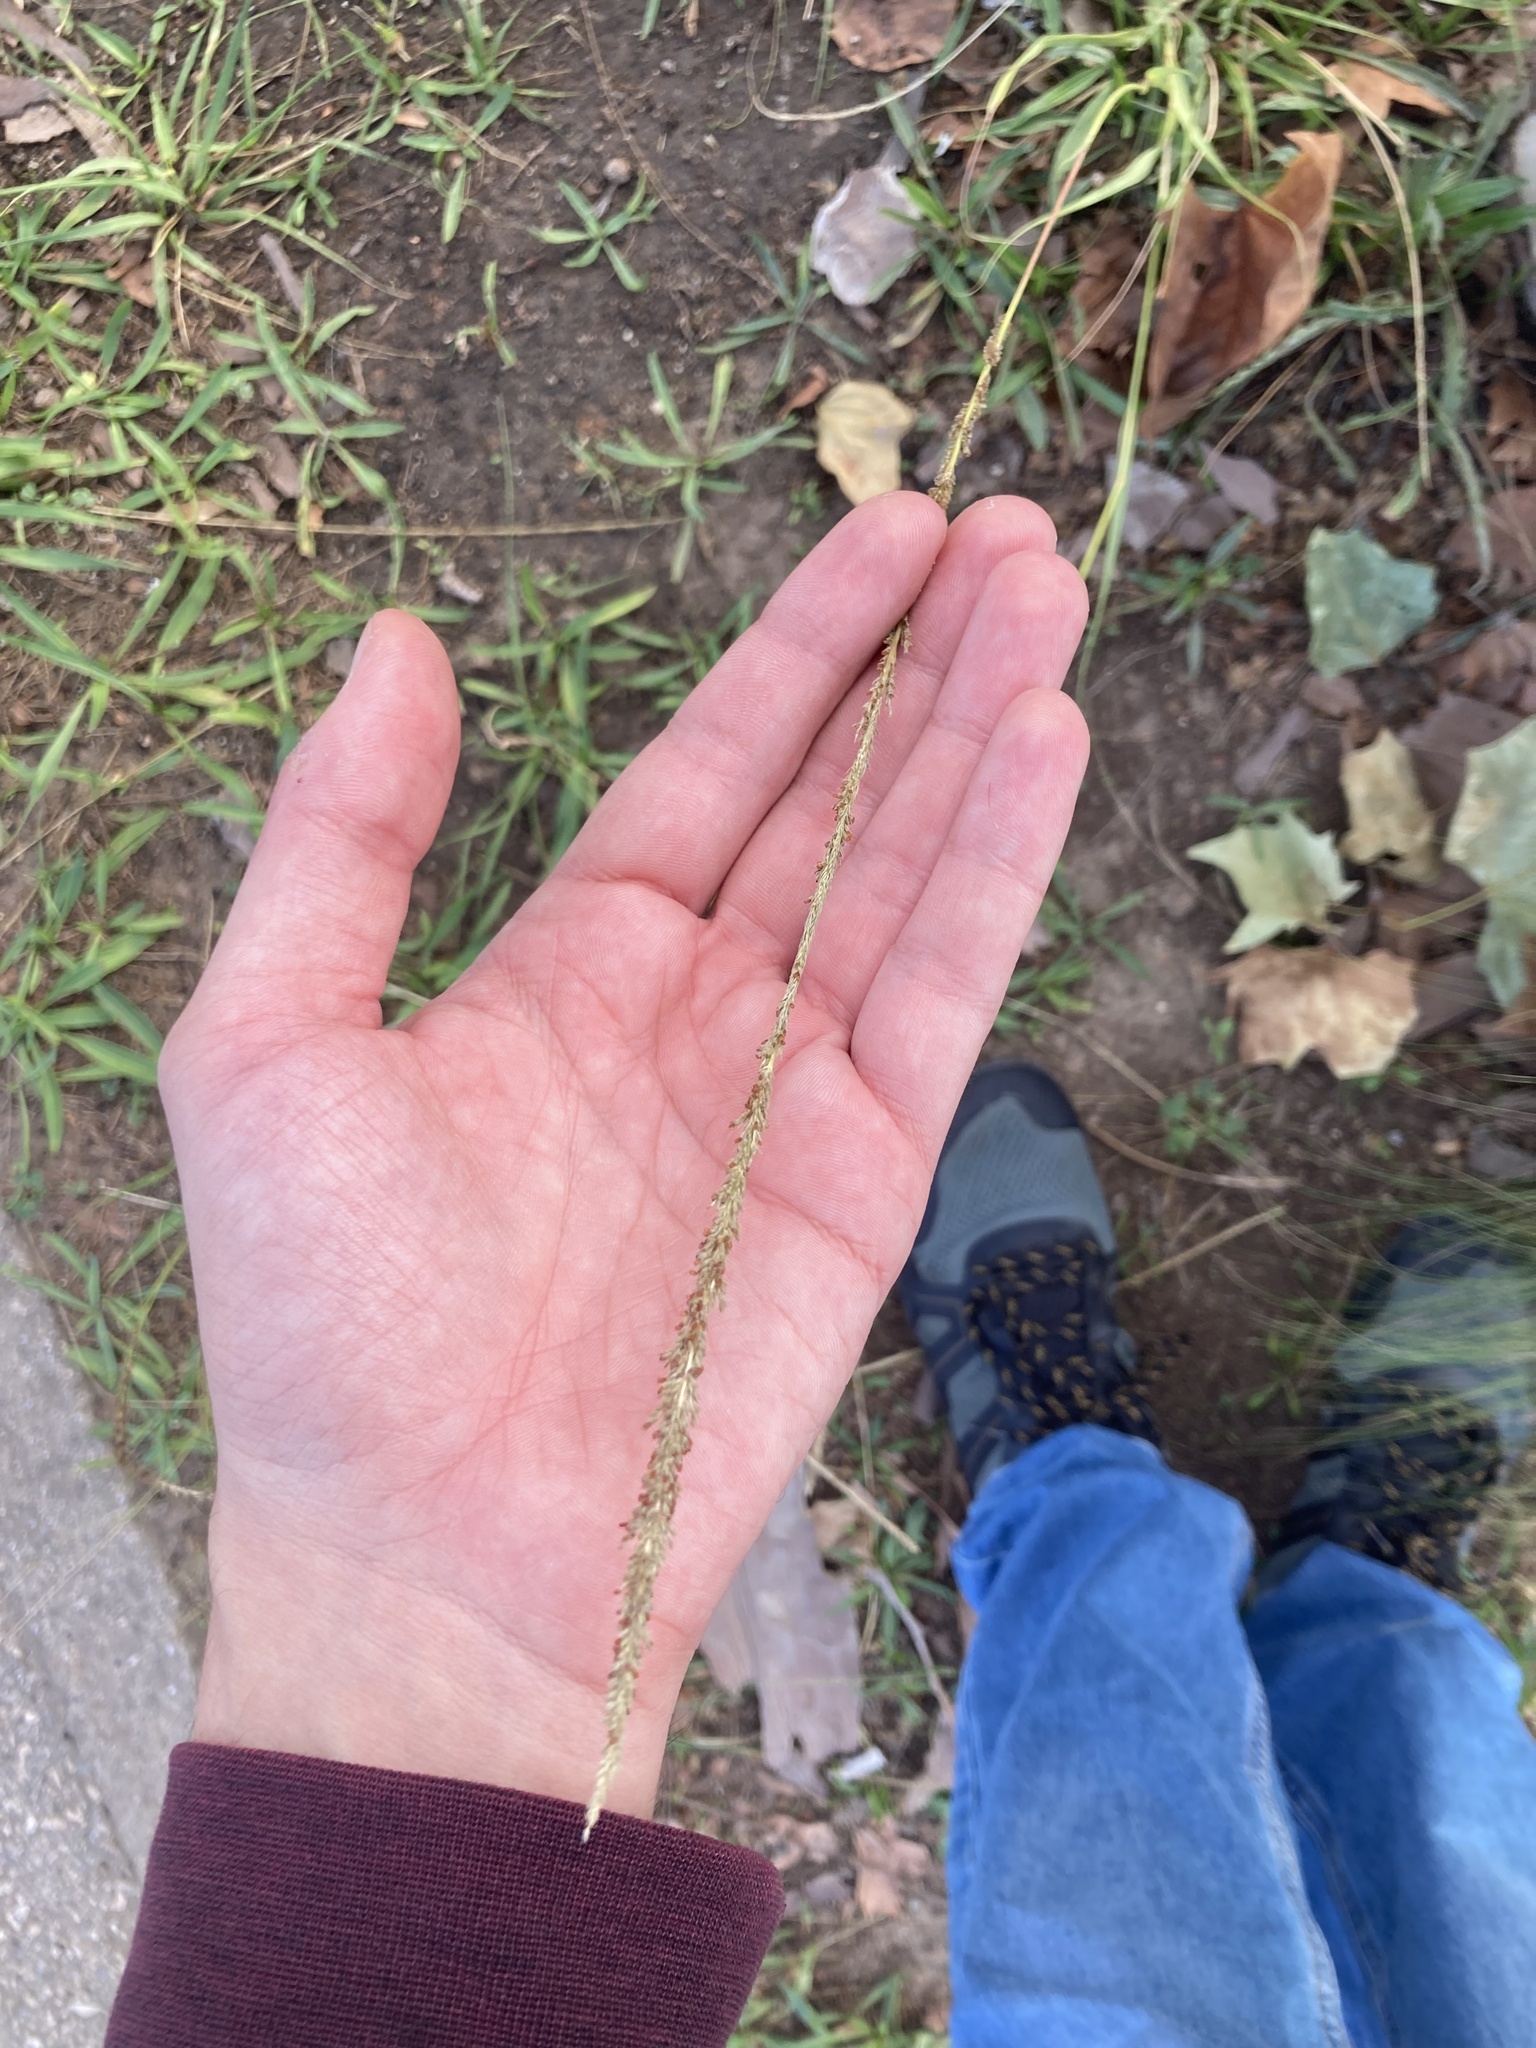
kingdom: Plantae
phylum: Tracheophyta
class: Liliopsida
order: Poales
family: Poaceae
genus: Sporobolus
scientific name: Sporobolus indicus
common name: Smut grass
